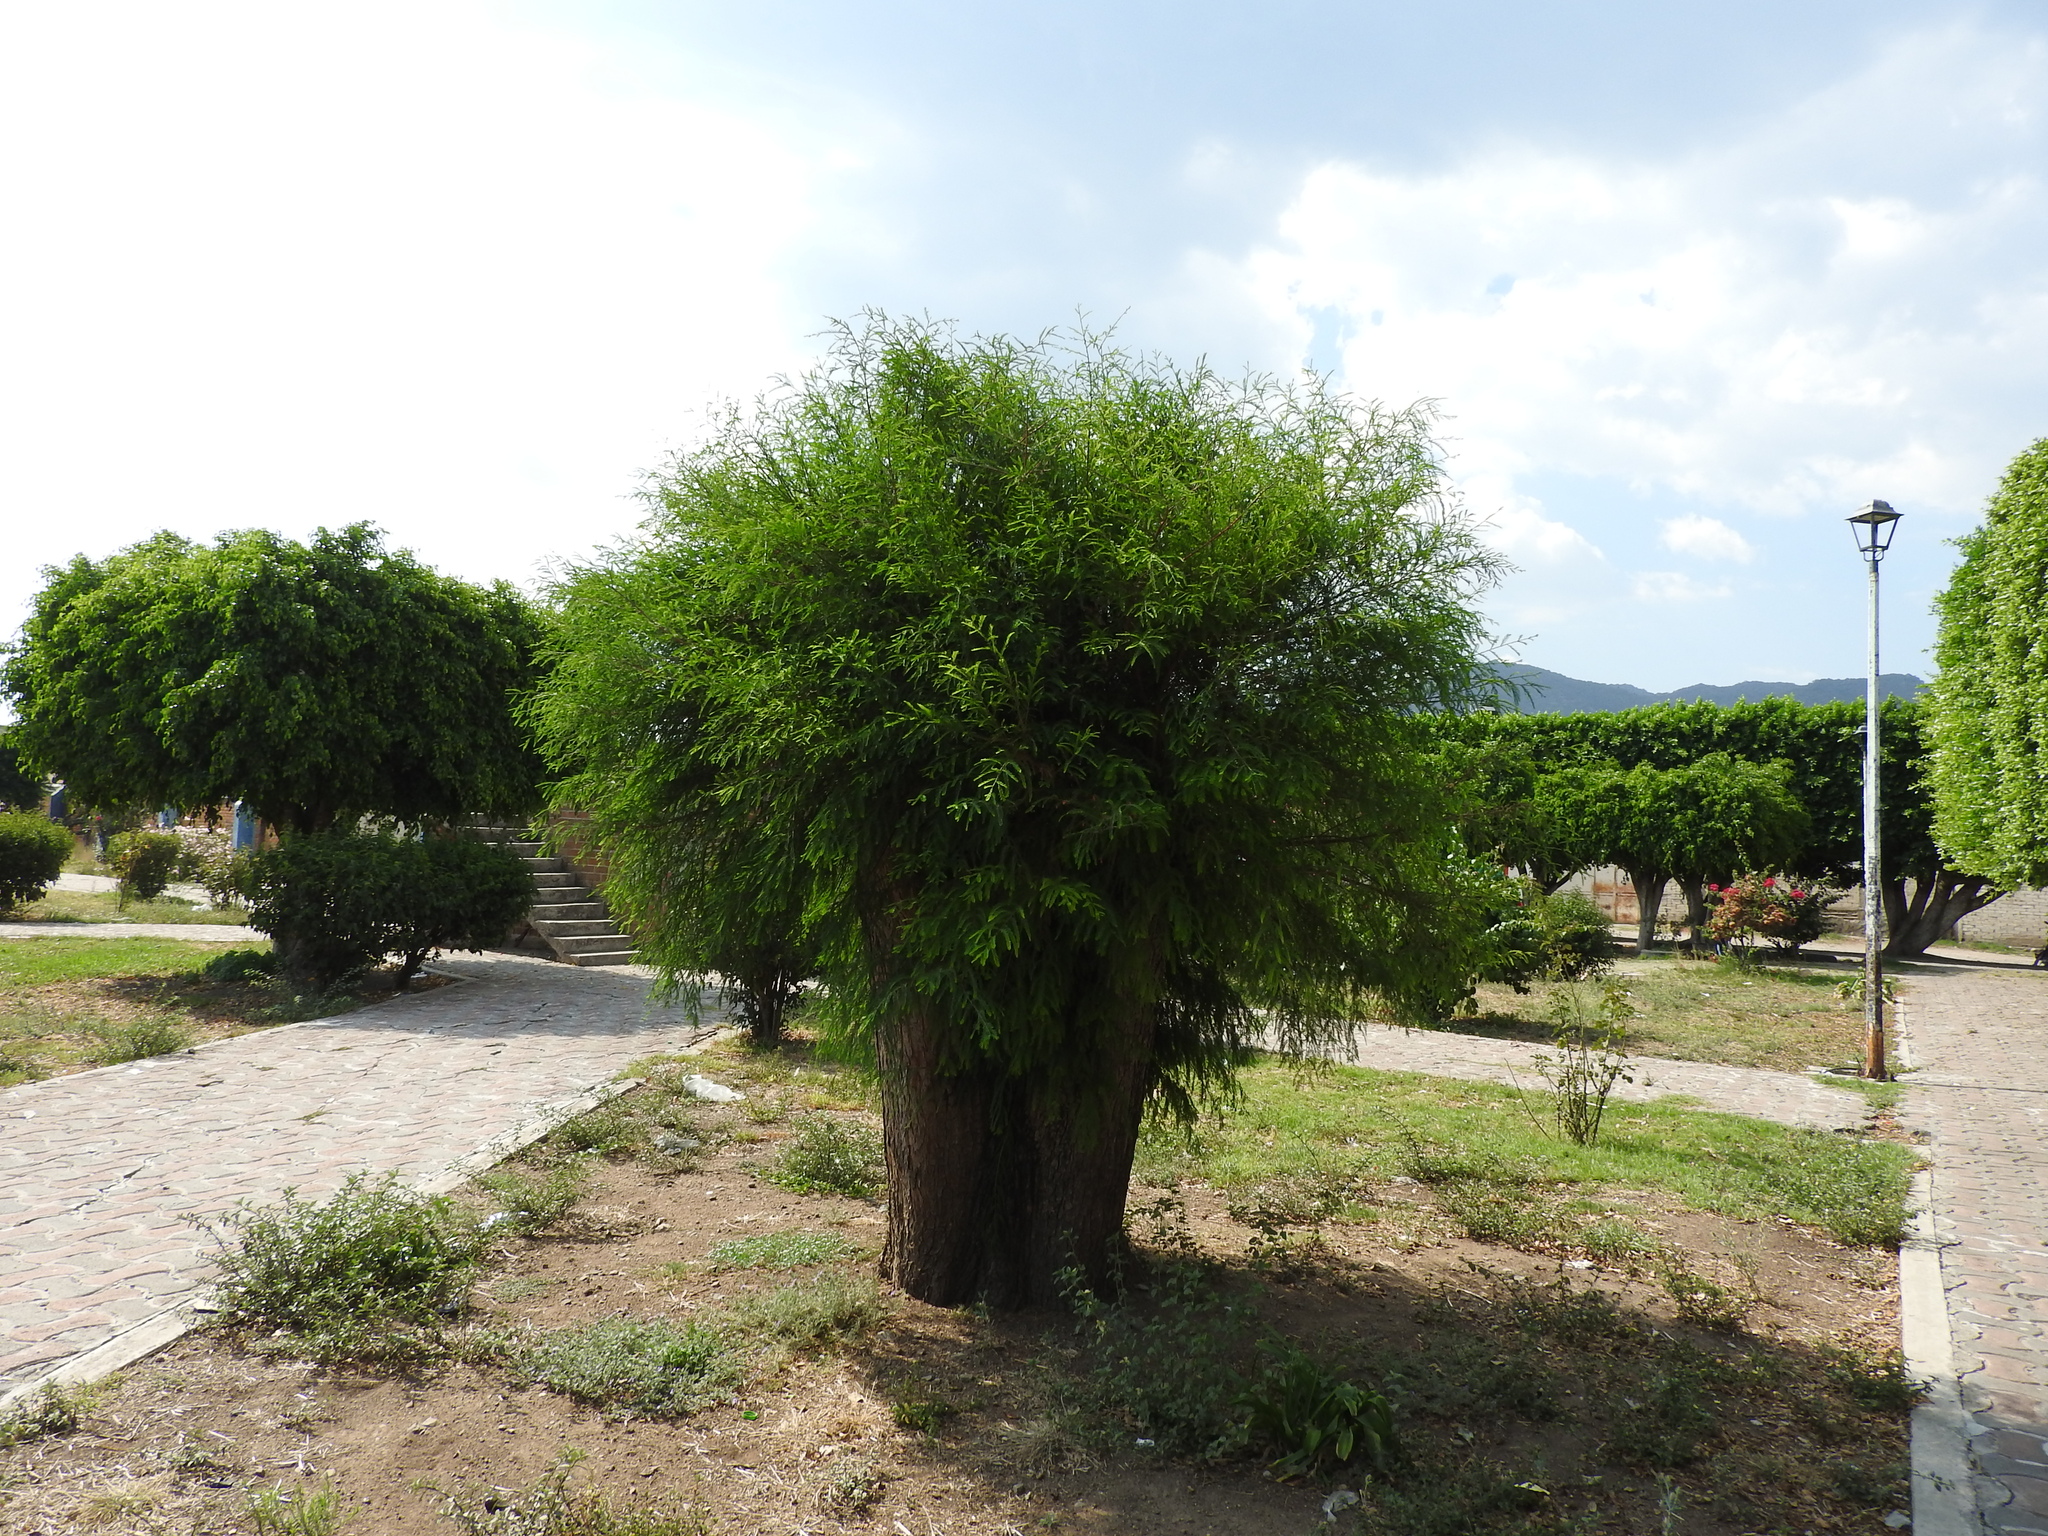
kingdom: Plantae
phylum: Tracheophyta
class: Pinopsida
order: Pinales
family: Cupressaceae
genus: Taxodium
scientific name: Taxodium mucronatum
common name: Montezume bald cypress
